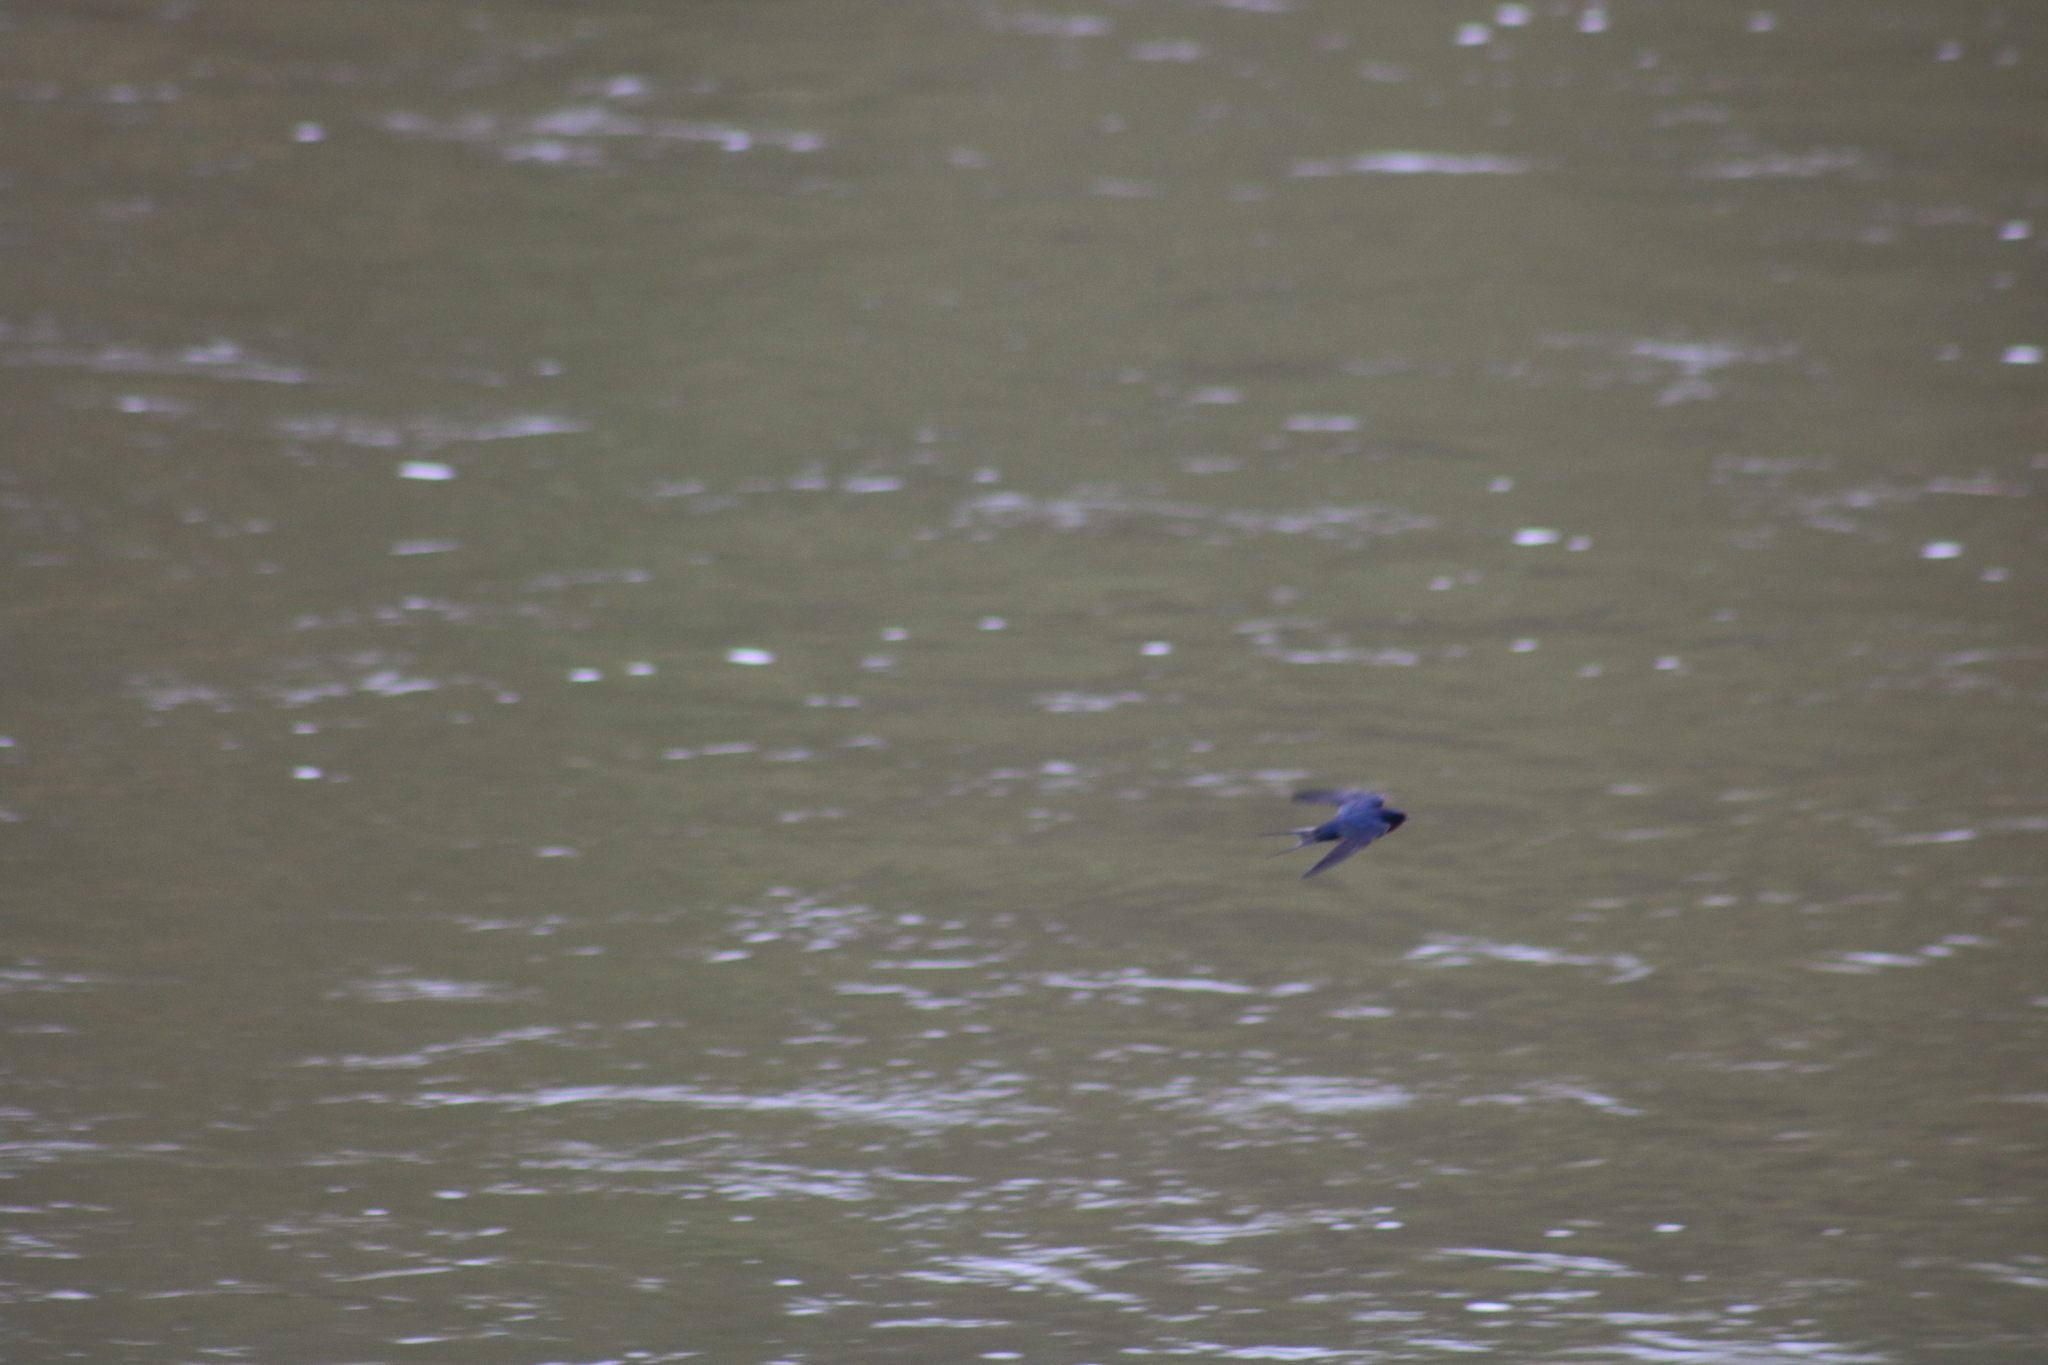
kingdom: Animalia
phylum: Chordata
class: Aves
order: Passeriformes
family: Hirundinidae
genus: Hirundo
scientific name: Hirundo rustica
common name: Barn swallow
